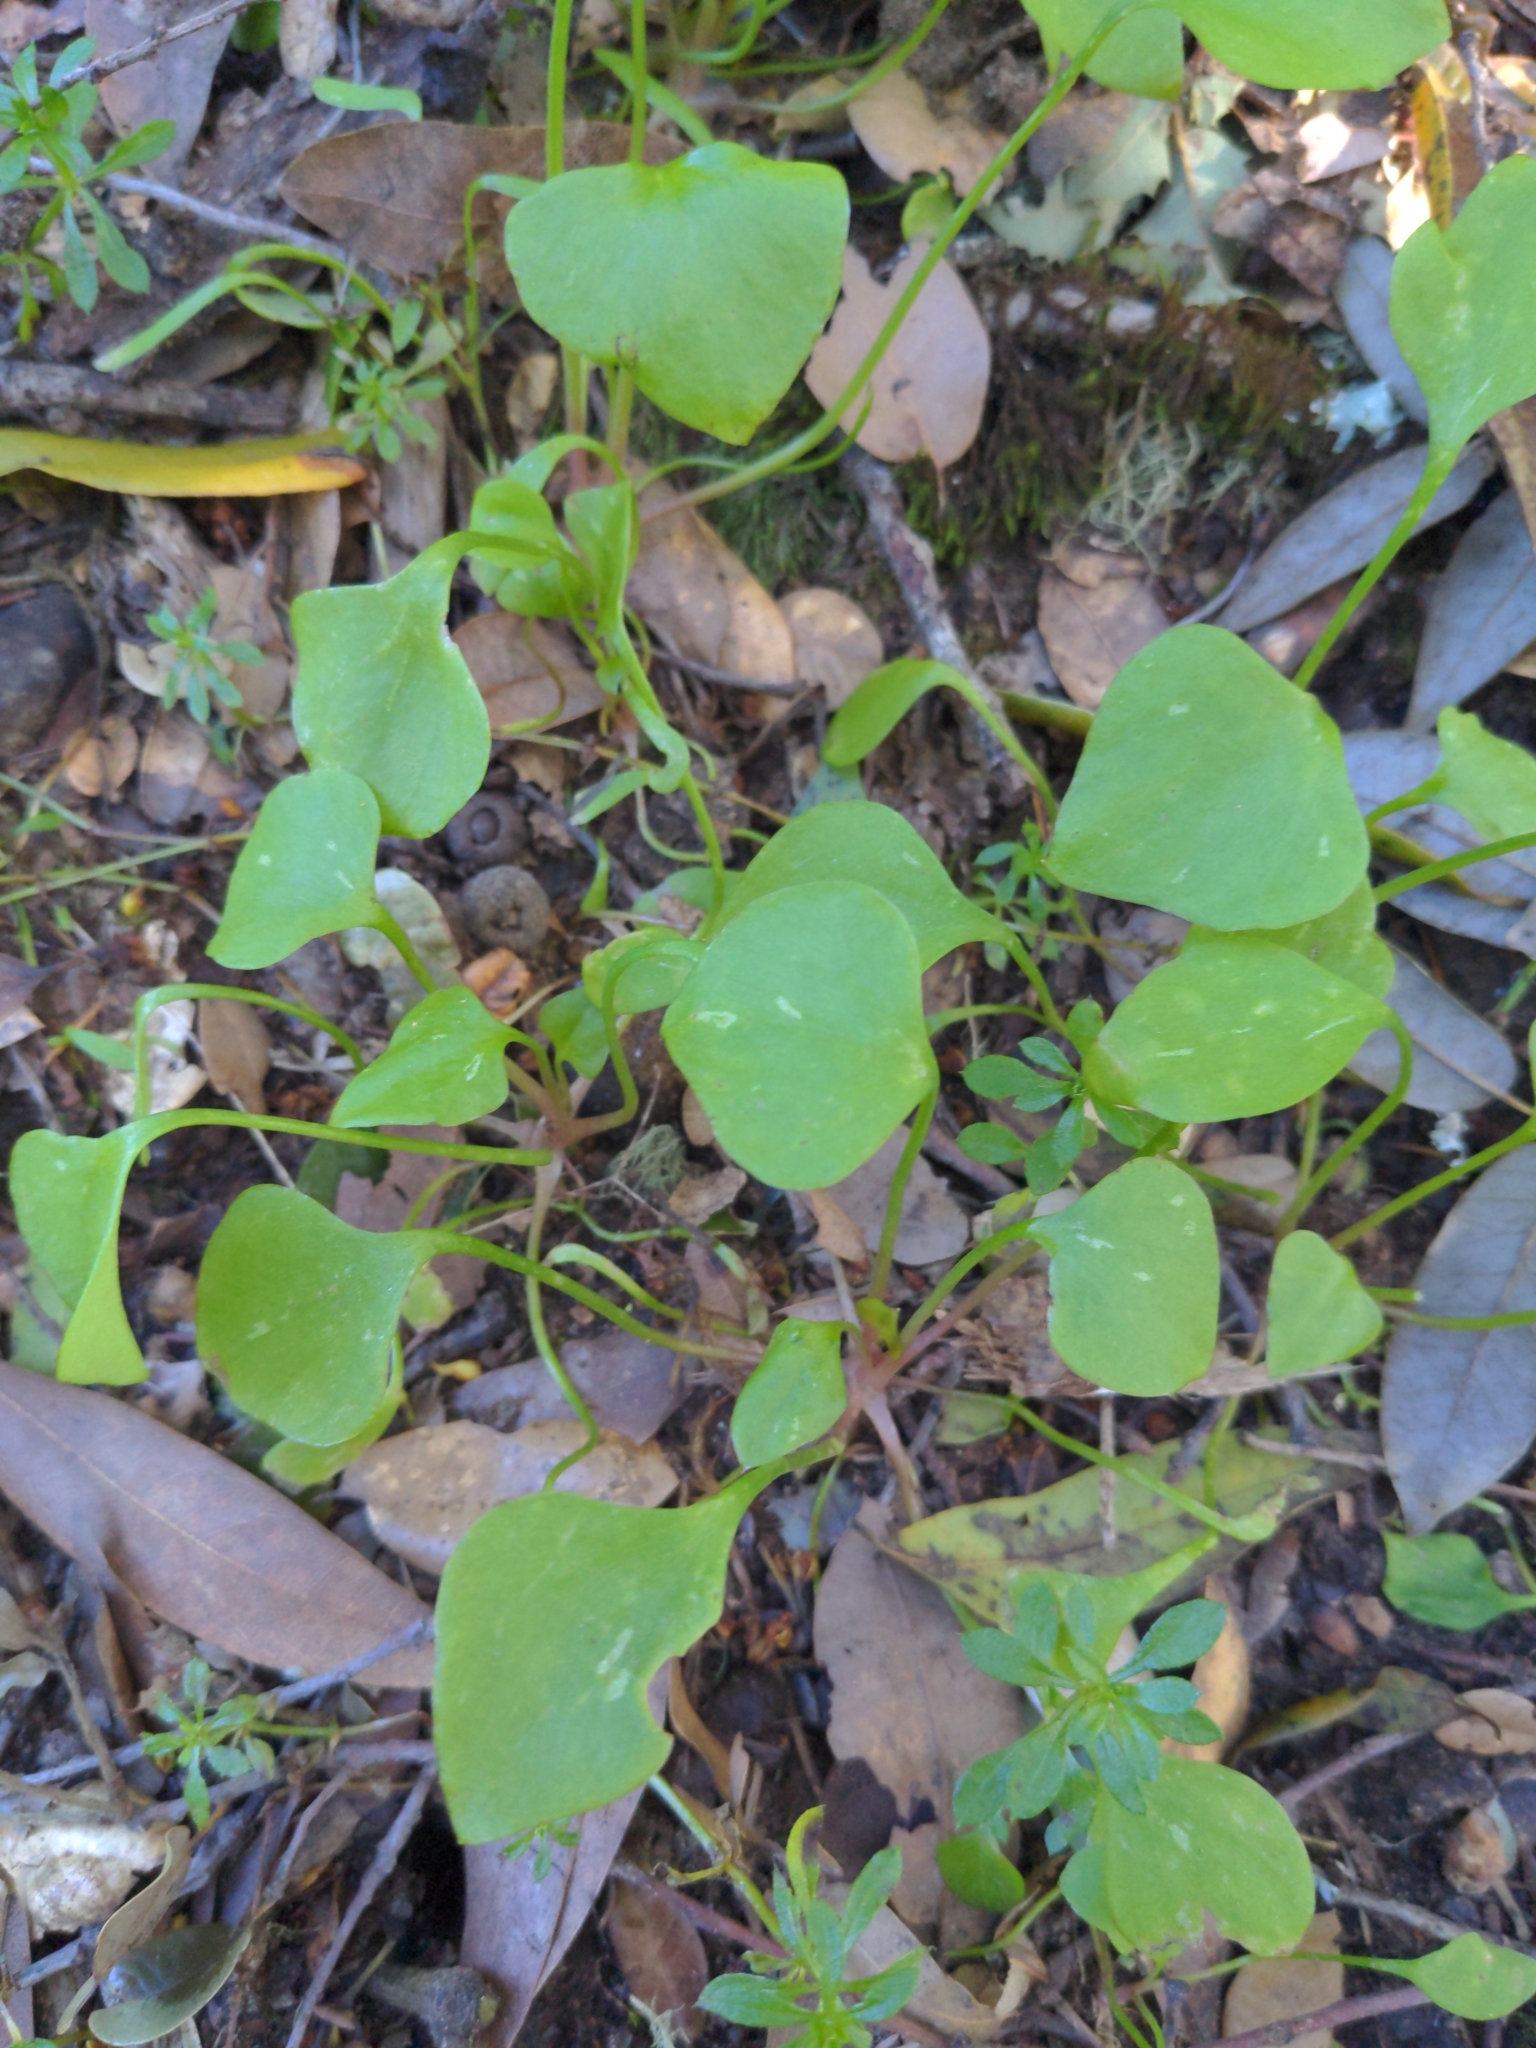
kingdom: Plantae
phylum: Tracheophyta
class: Magnoliopsida
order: Caryophyllales
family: Montiaceae
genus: Claytonia
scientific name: Claytonia perfoliata
